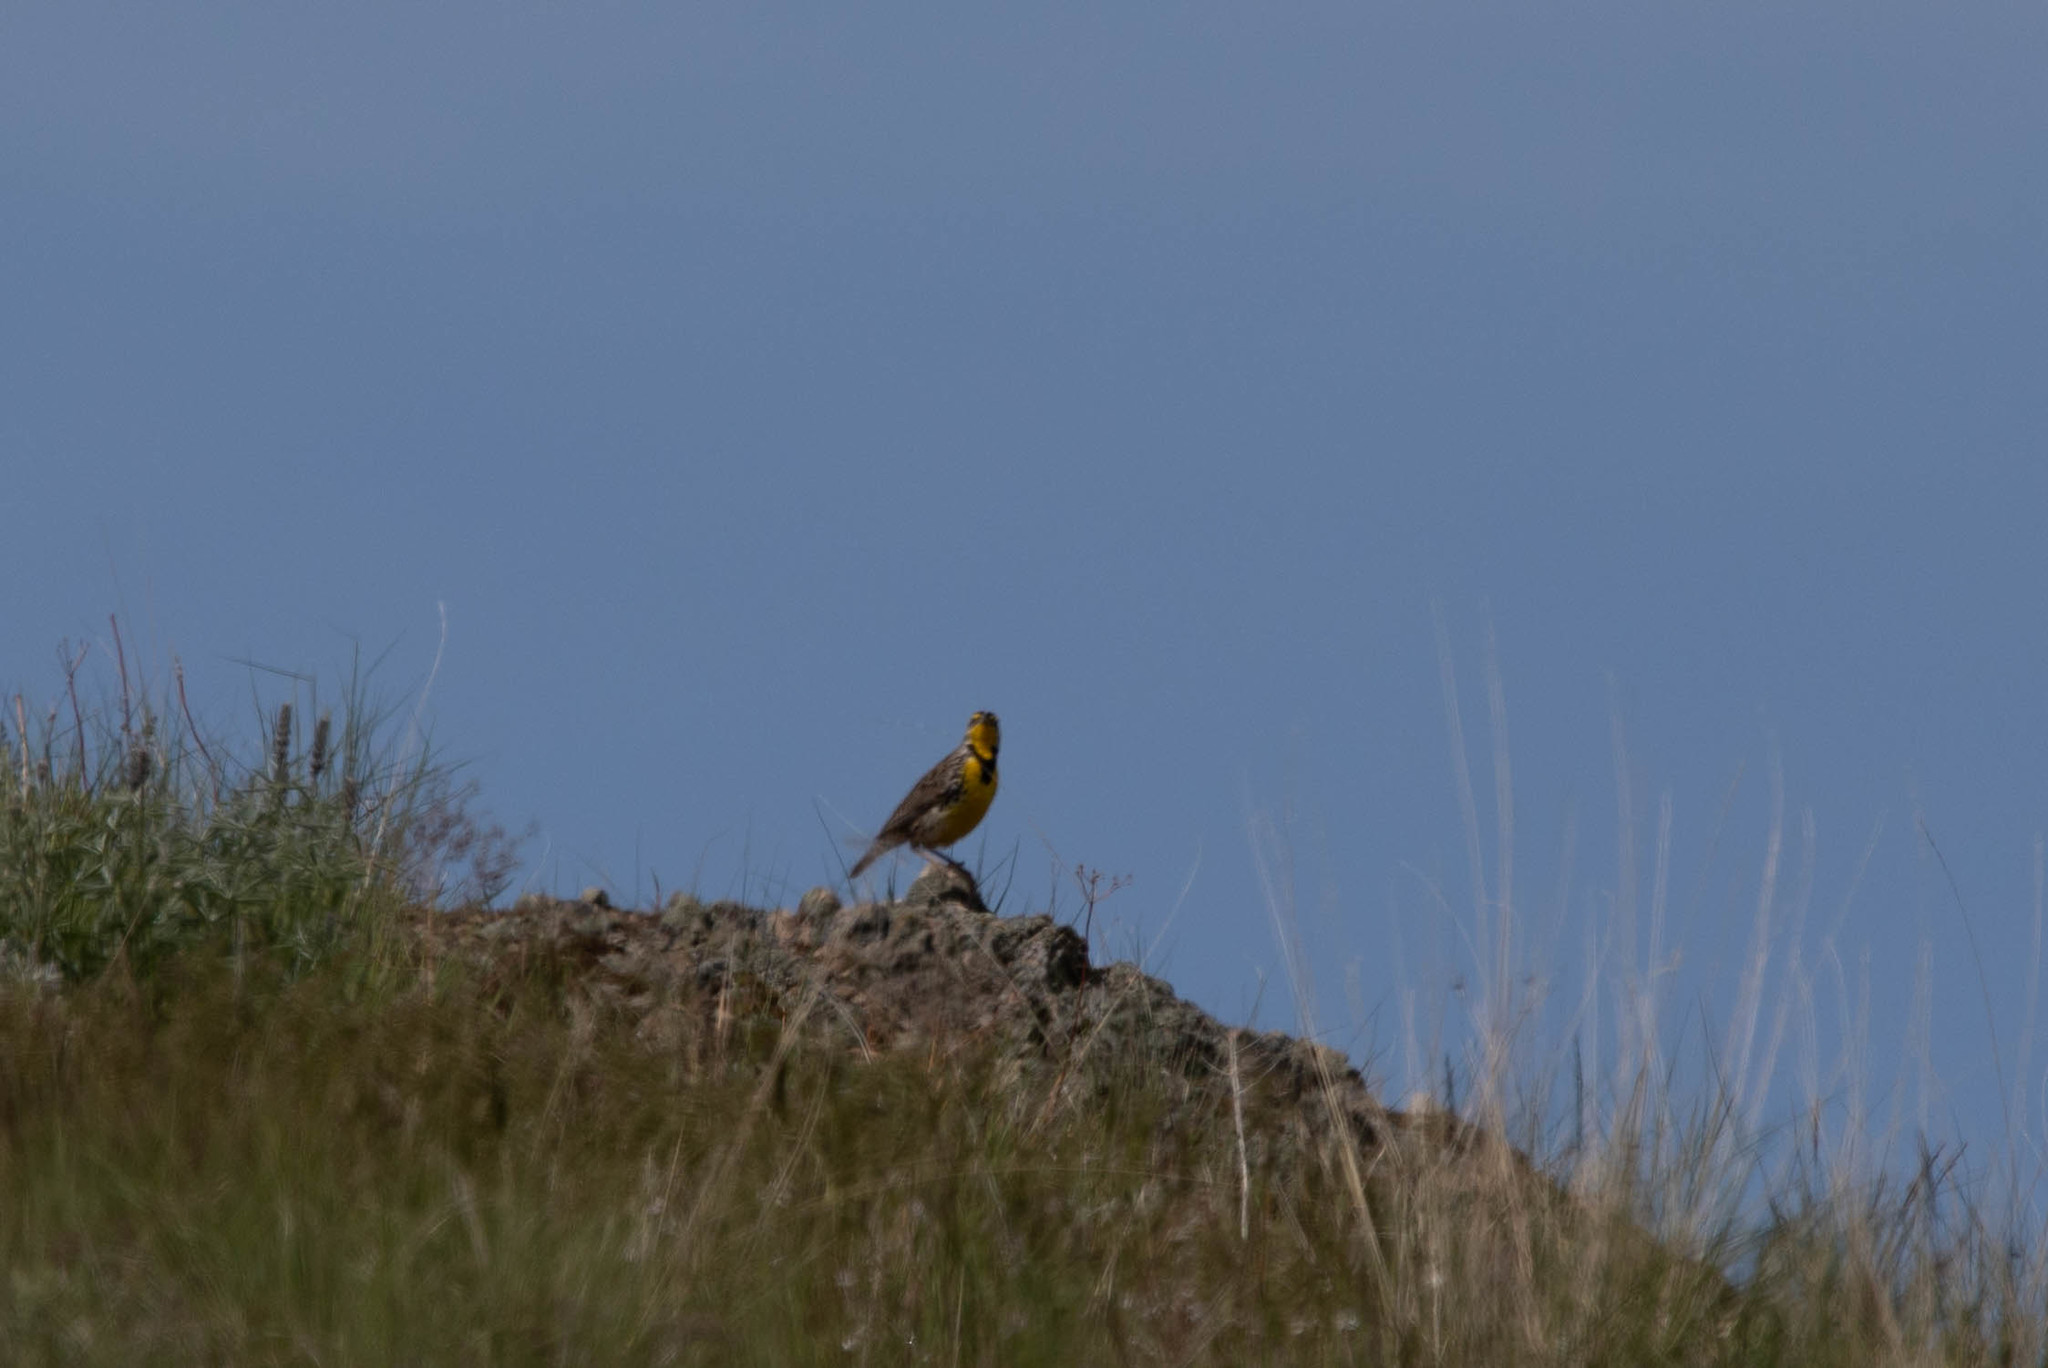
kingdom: Animalia
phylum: Chordata
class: Aves
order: Passeriformes
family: Icteridae
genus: Sturnella
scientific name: Sturnella neglecta
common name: Western meadowlark
